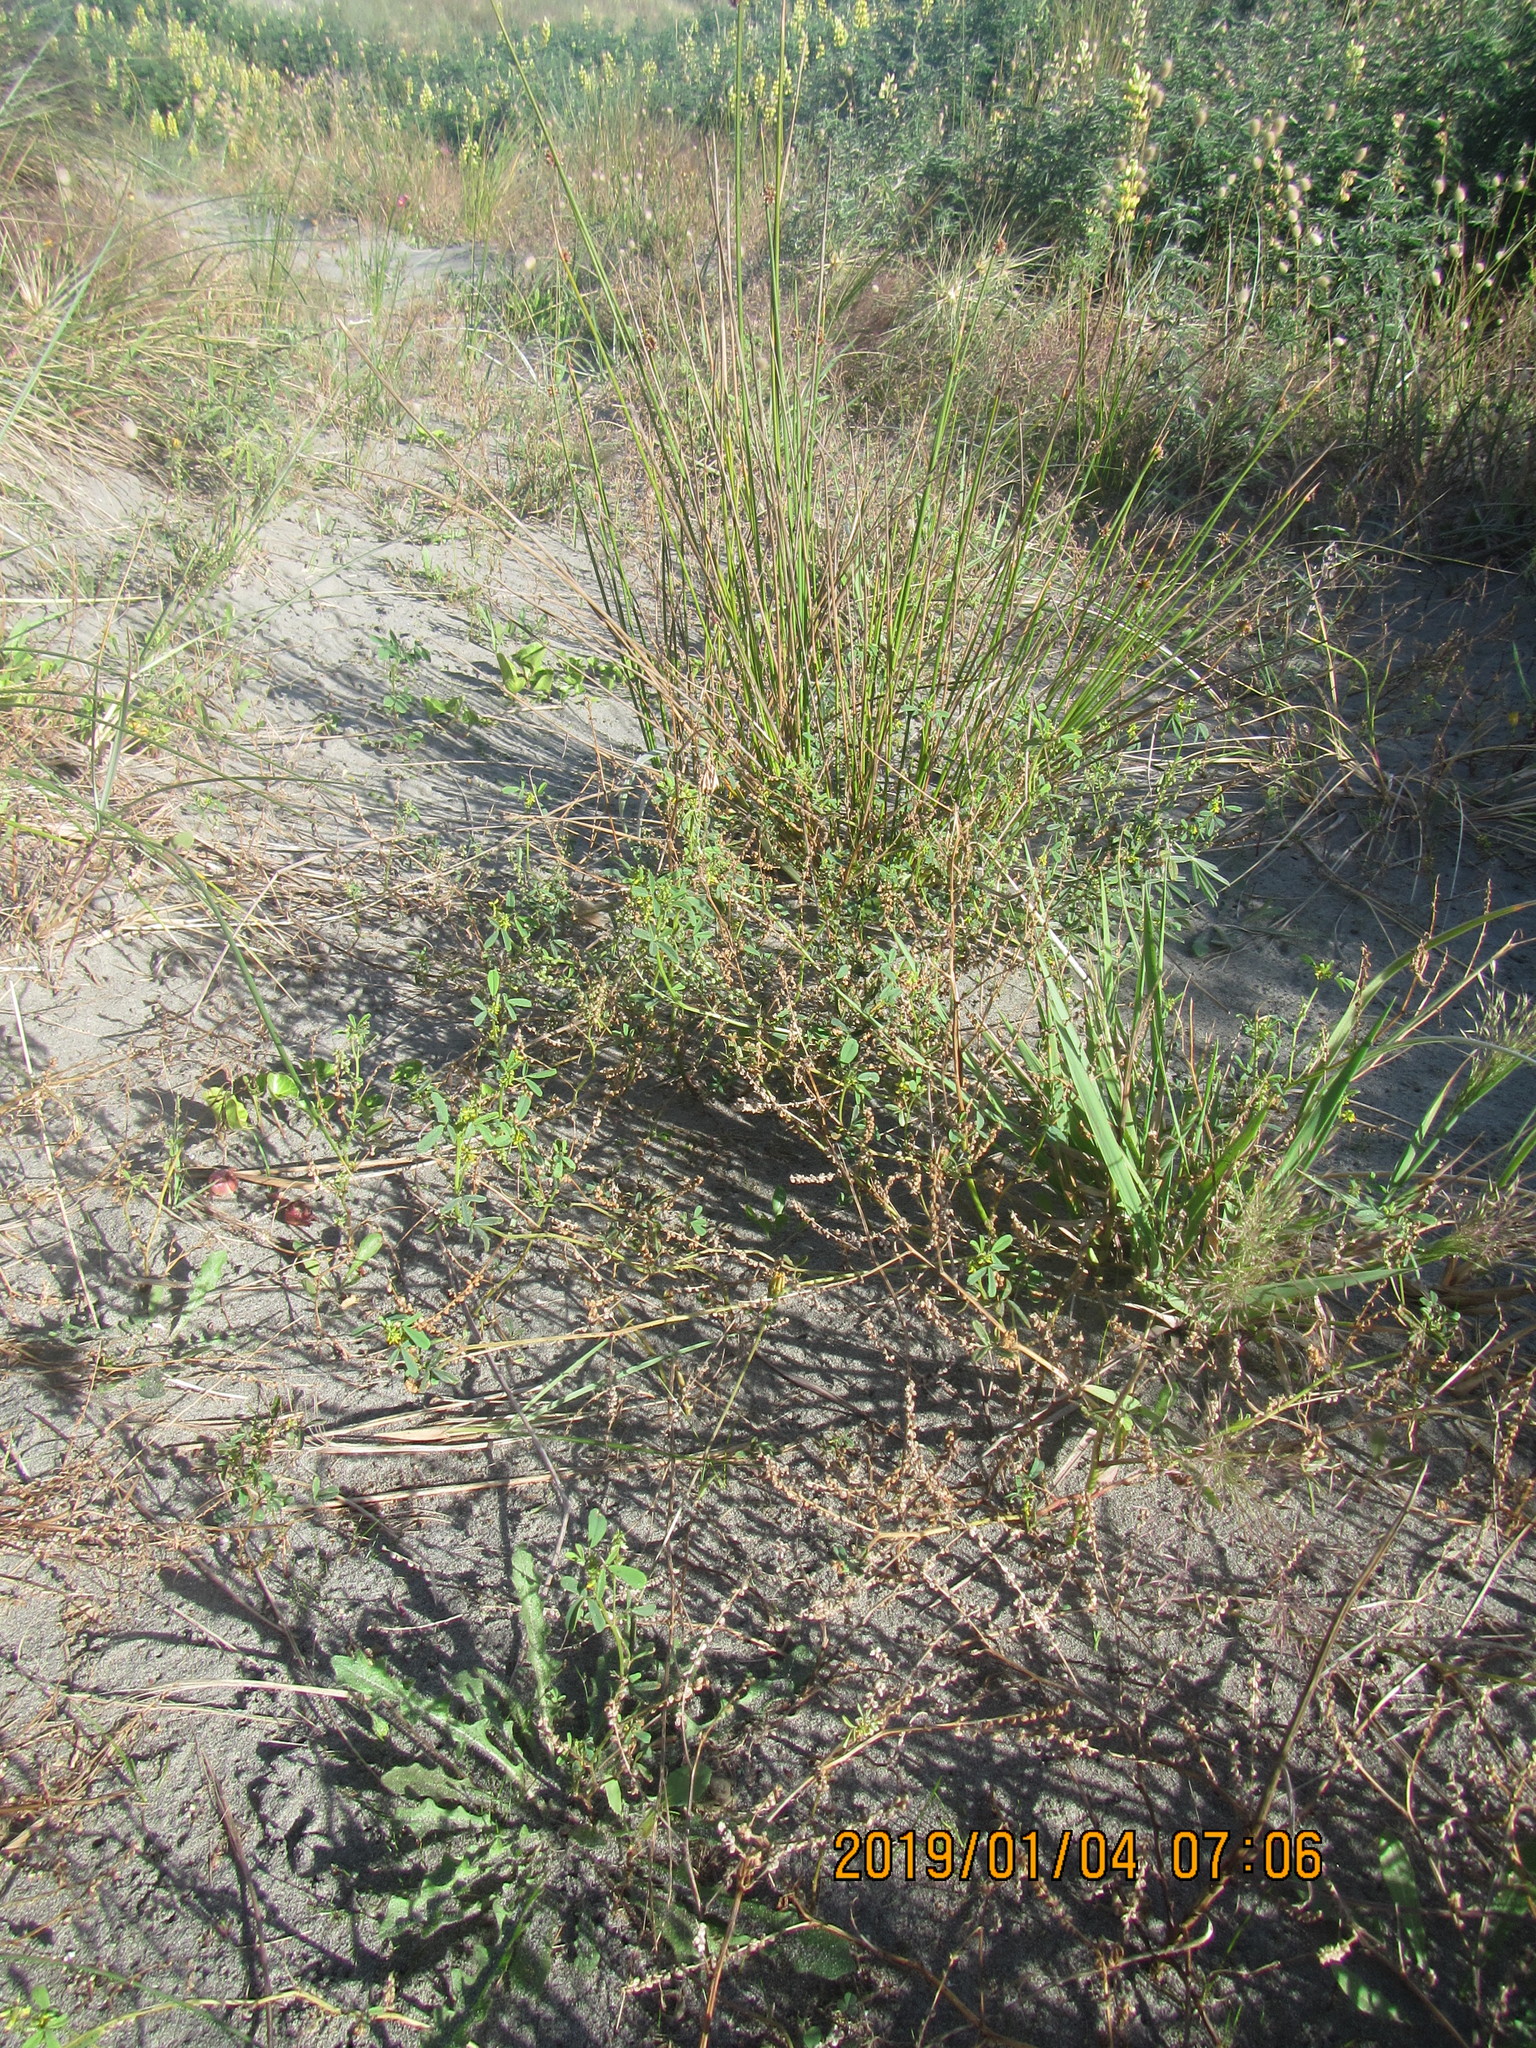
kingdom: Plantae
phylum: Tracheophyta
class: Magnoliopsida
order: Fabales
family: Fabaceae
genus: Melilotus
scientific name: Melilotus indicus
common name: Small melilot
